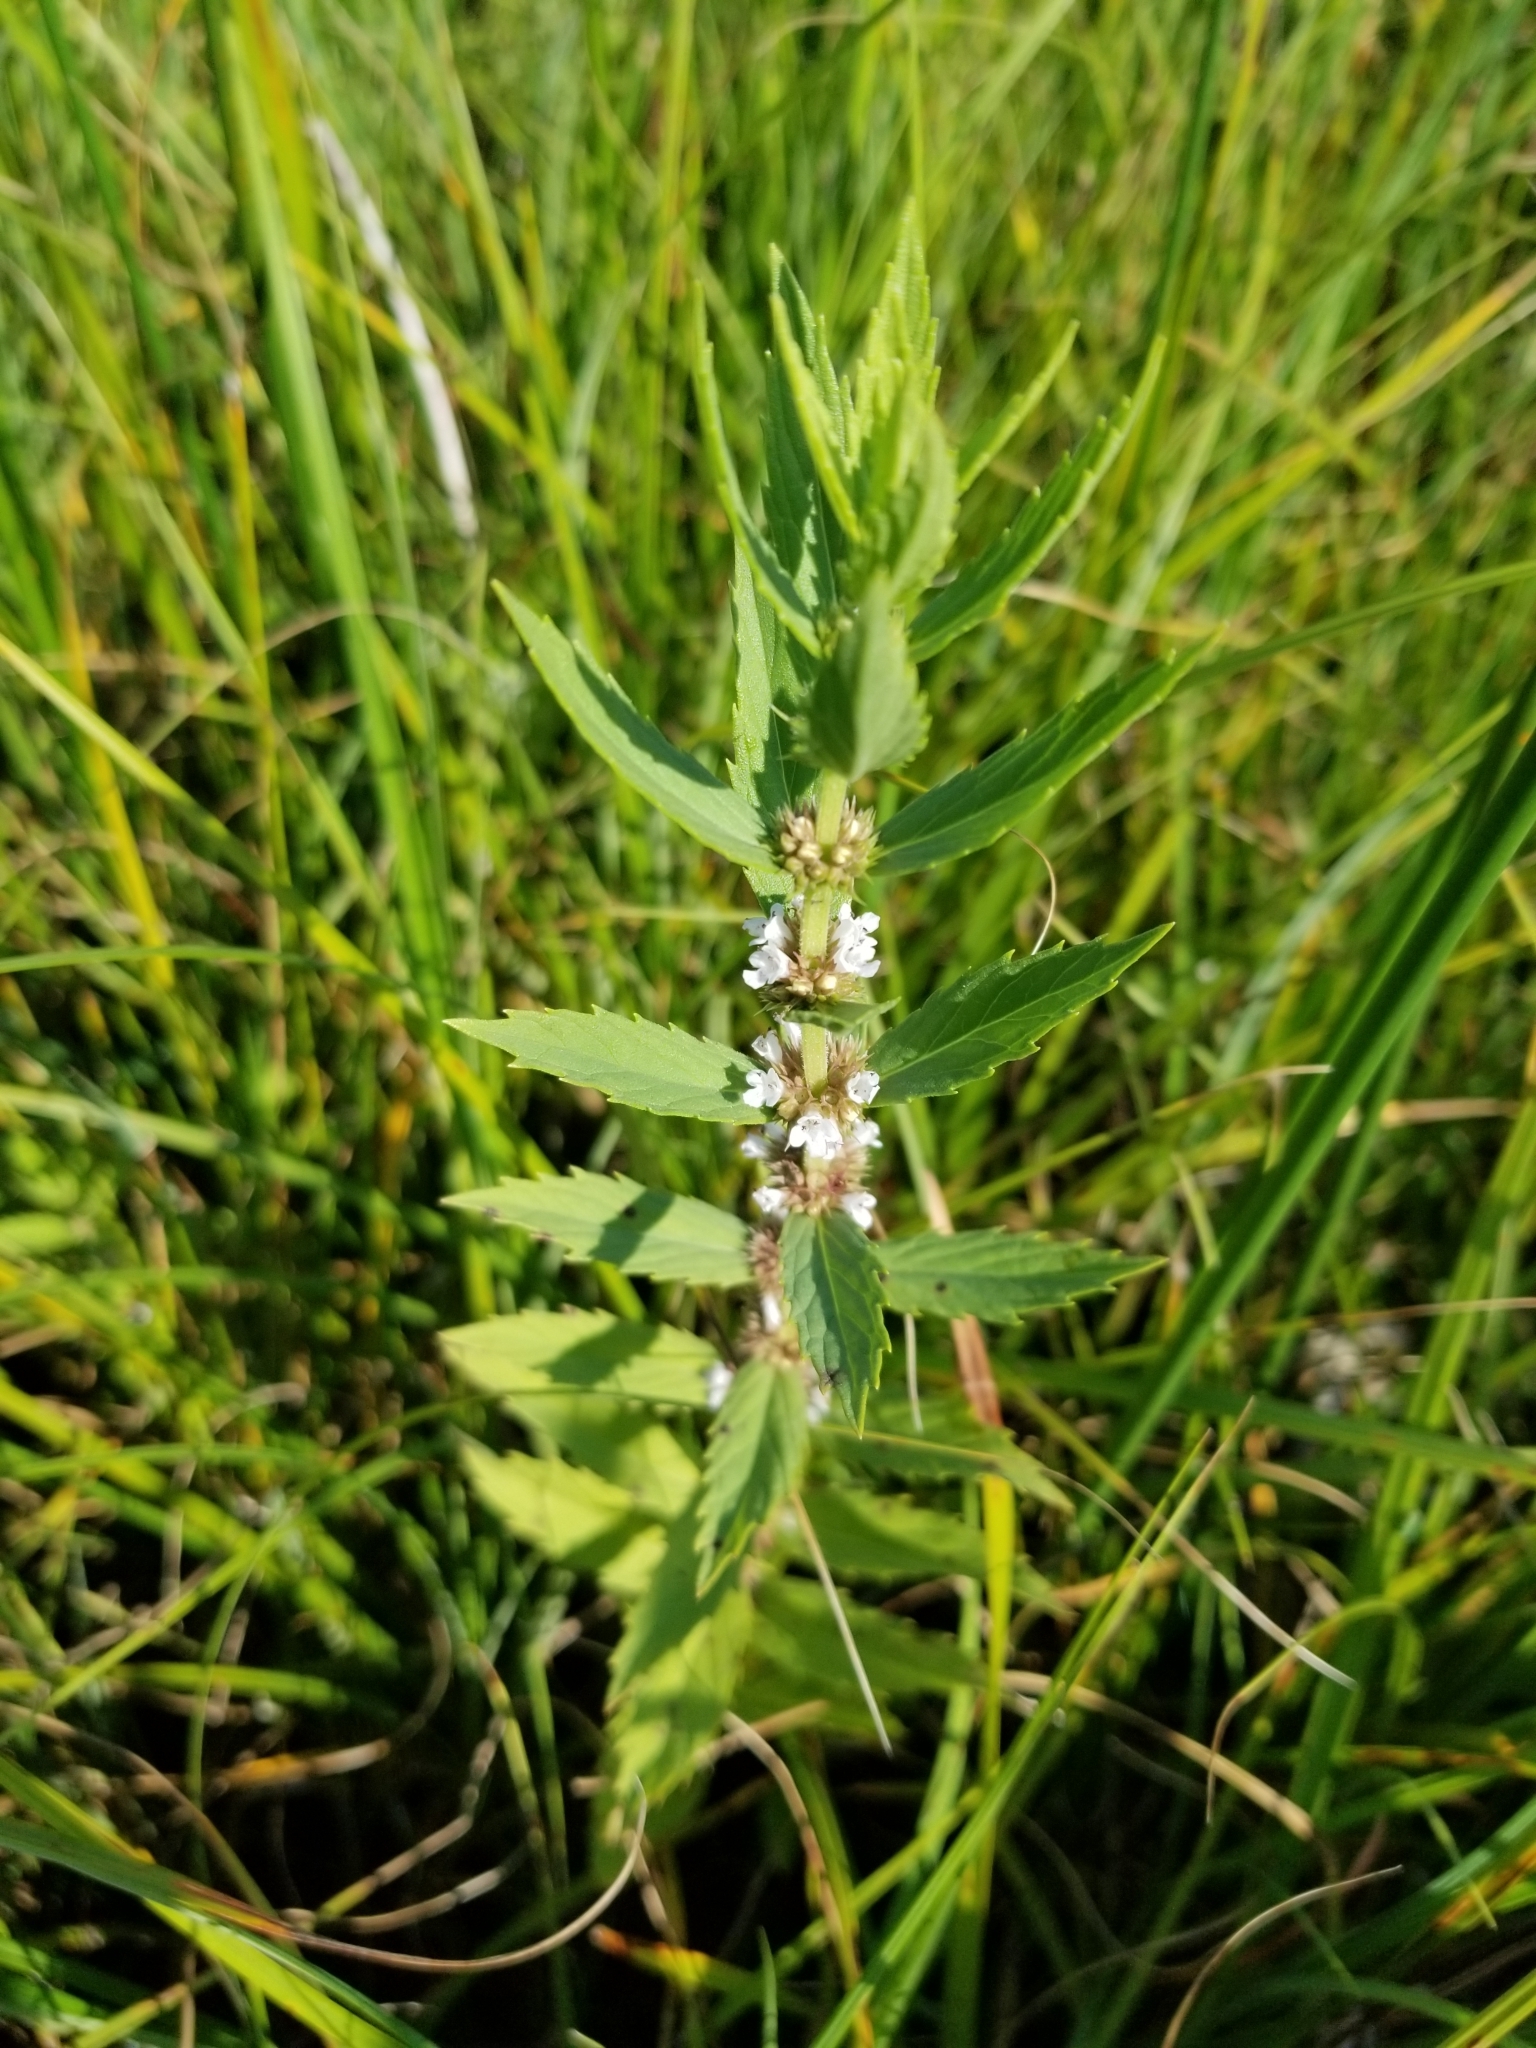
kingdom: Plantae
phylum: Tracheophyta
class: Magnoliopsida
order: Lamiales
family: Lamiaceae
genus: Lycopus
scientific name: Lycopus asper
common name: Rough water-horehound
